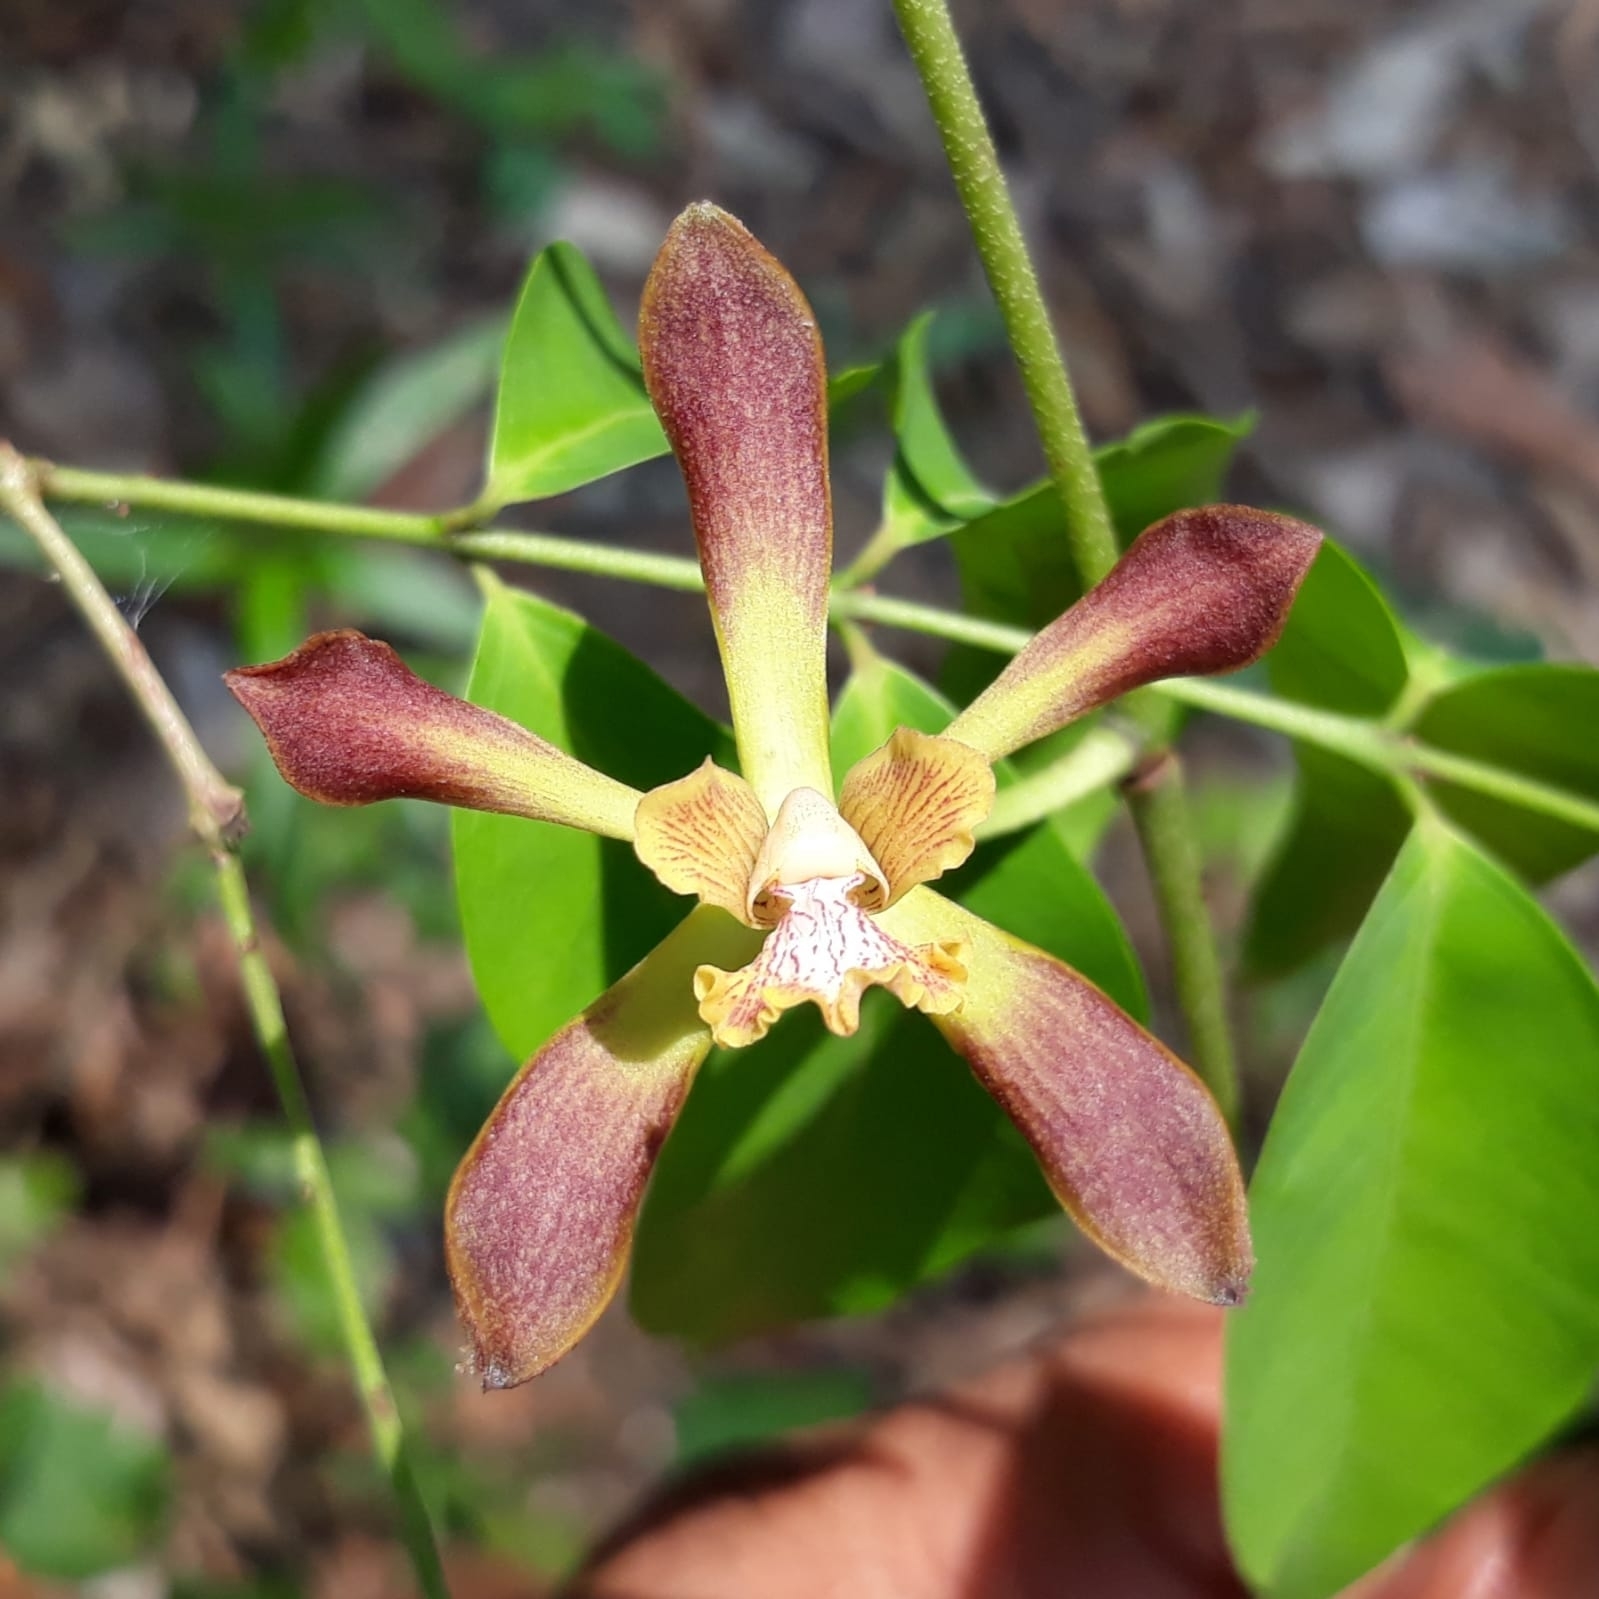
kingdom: Plantae
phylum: Tracheophyta
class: Liliopsida
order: Asparagales
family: Orchidaceae
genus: Encyclia
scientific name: Encyclia parviflora
